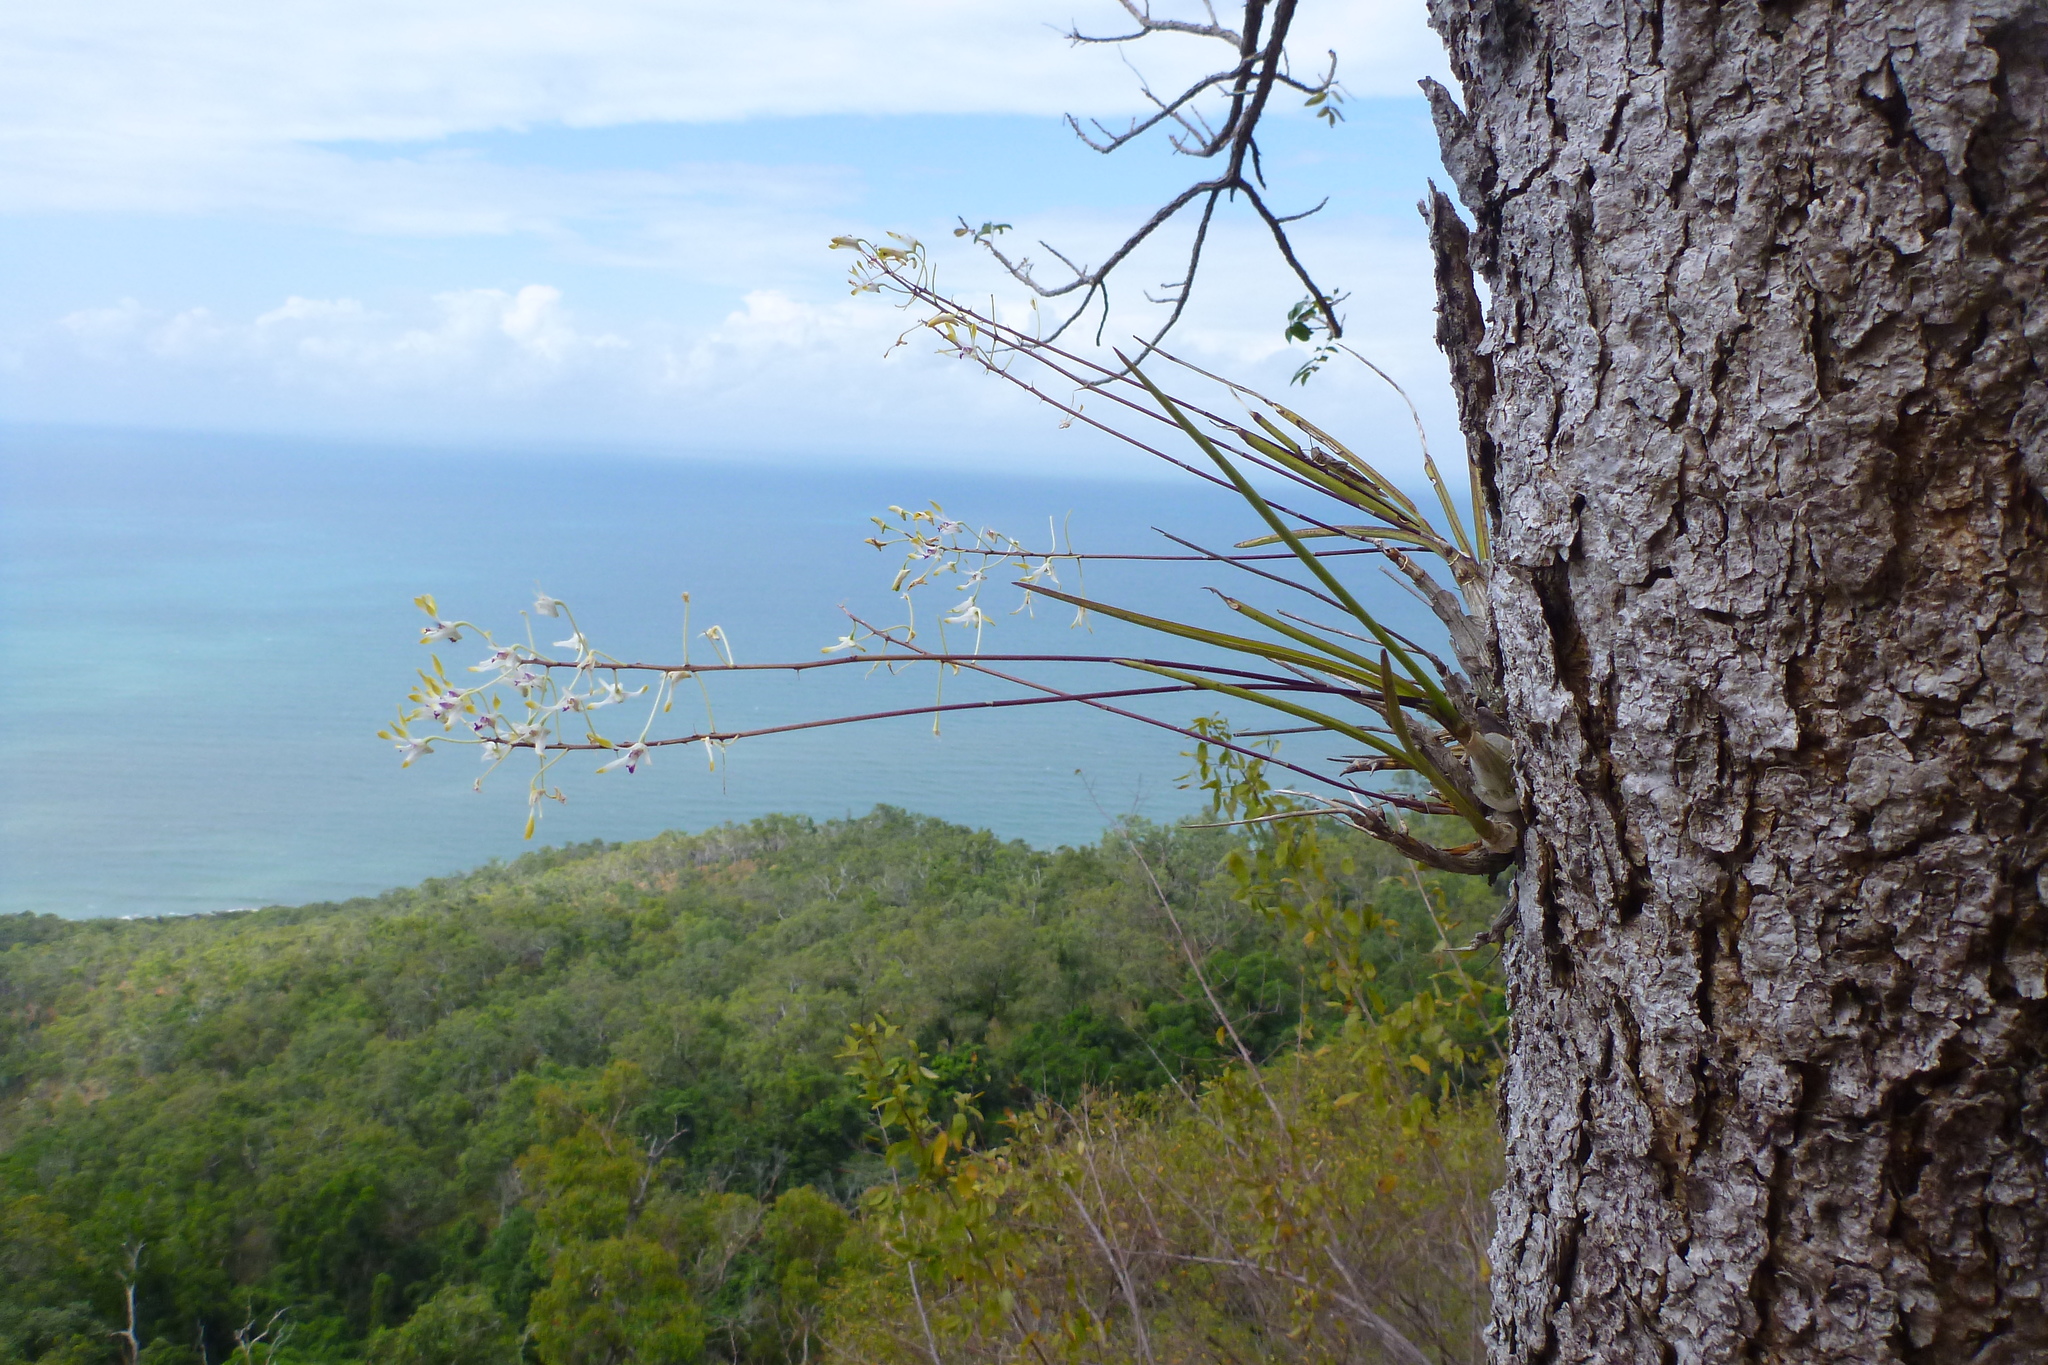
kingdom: Plantae
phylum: Tracheophyta
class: Liliopsida
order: Asparagales
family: Orchidaceae
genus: Dendrobium
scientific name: Dendrobium canaliculatum
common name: Tea tree orchid
